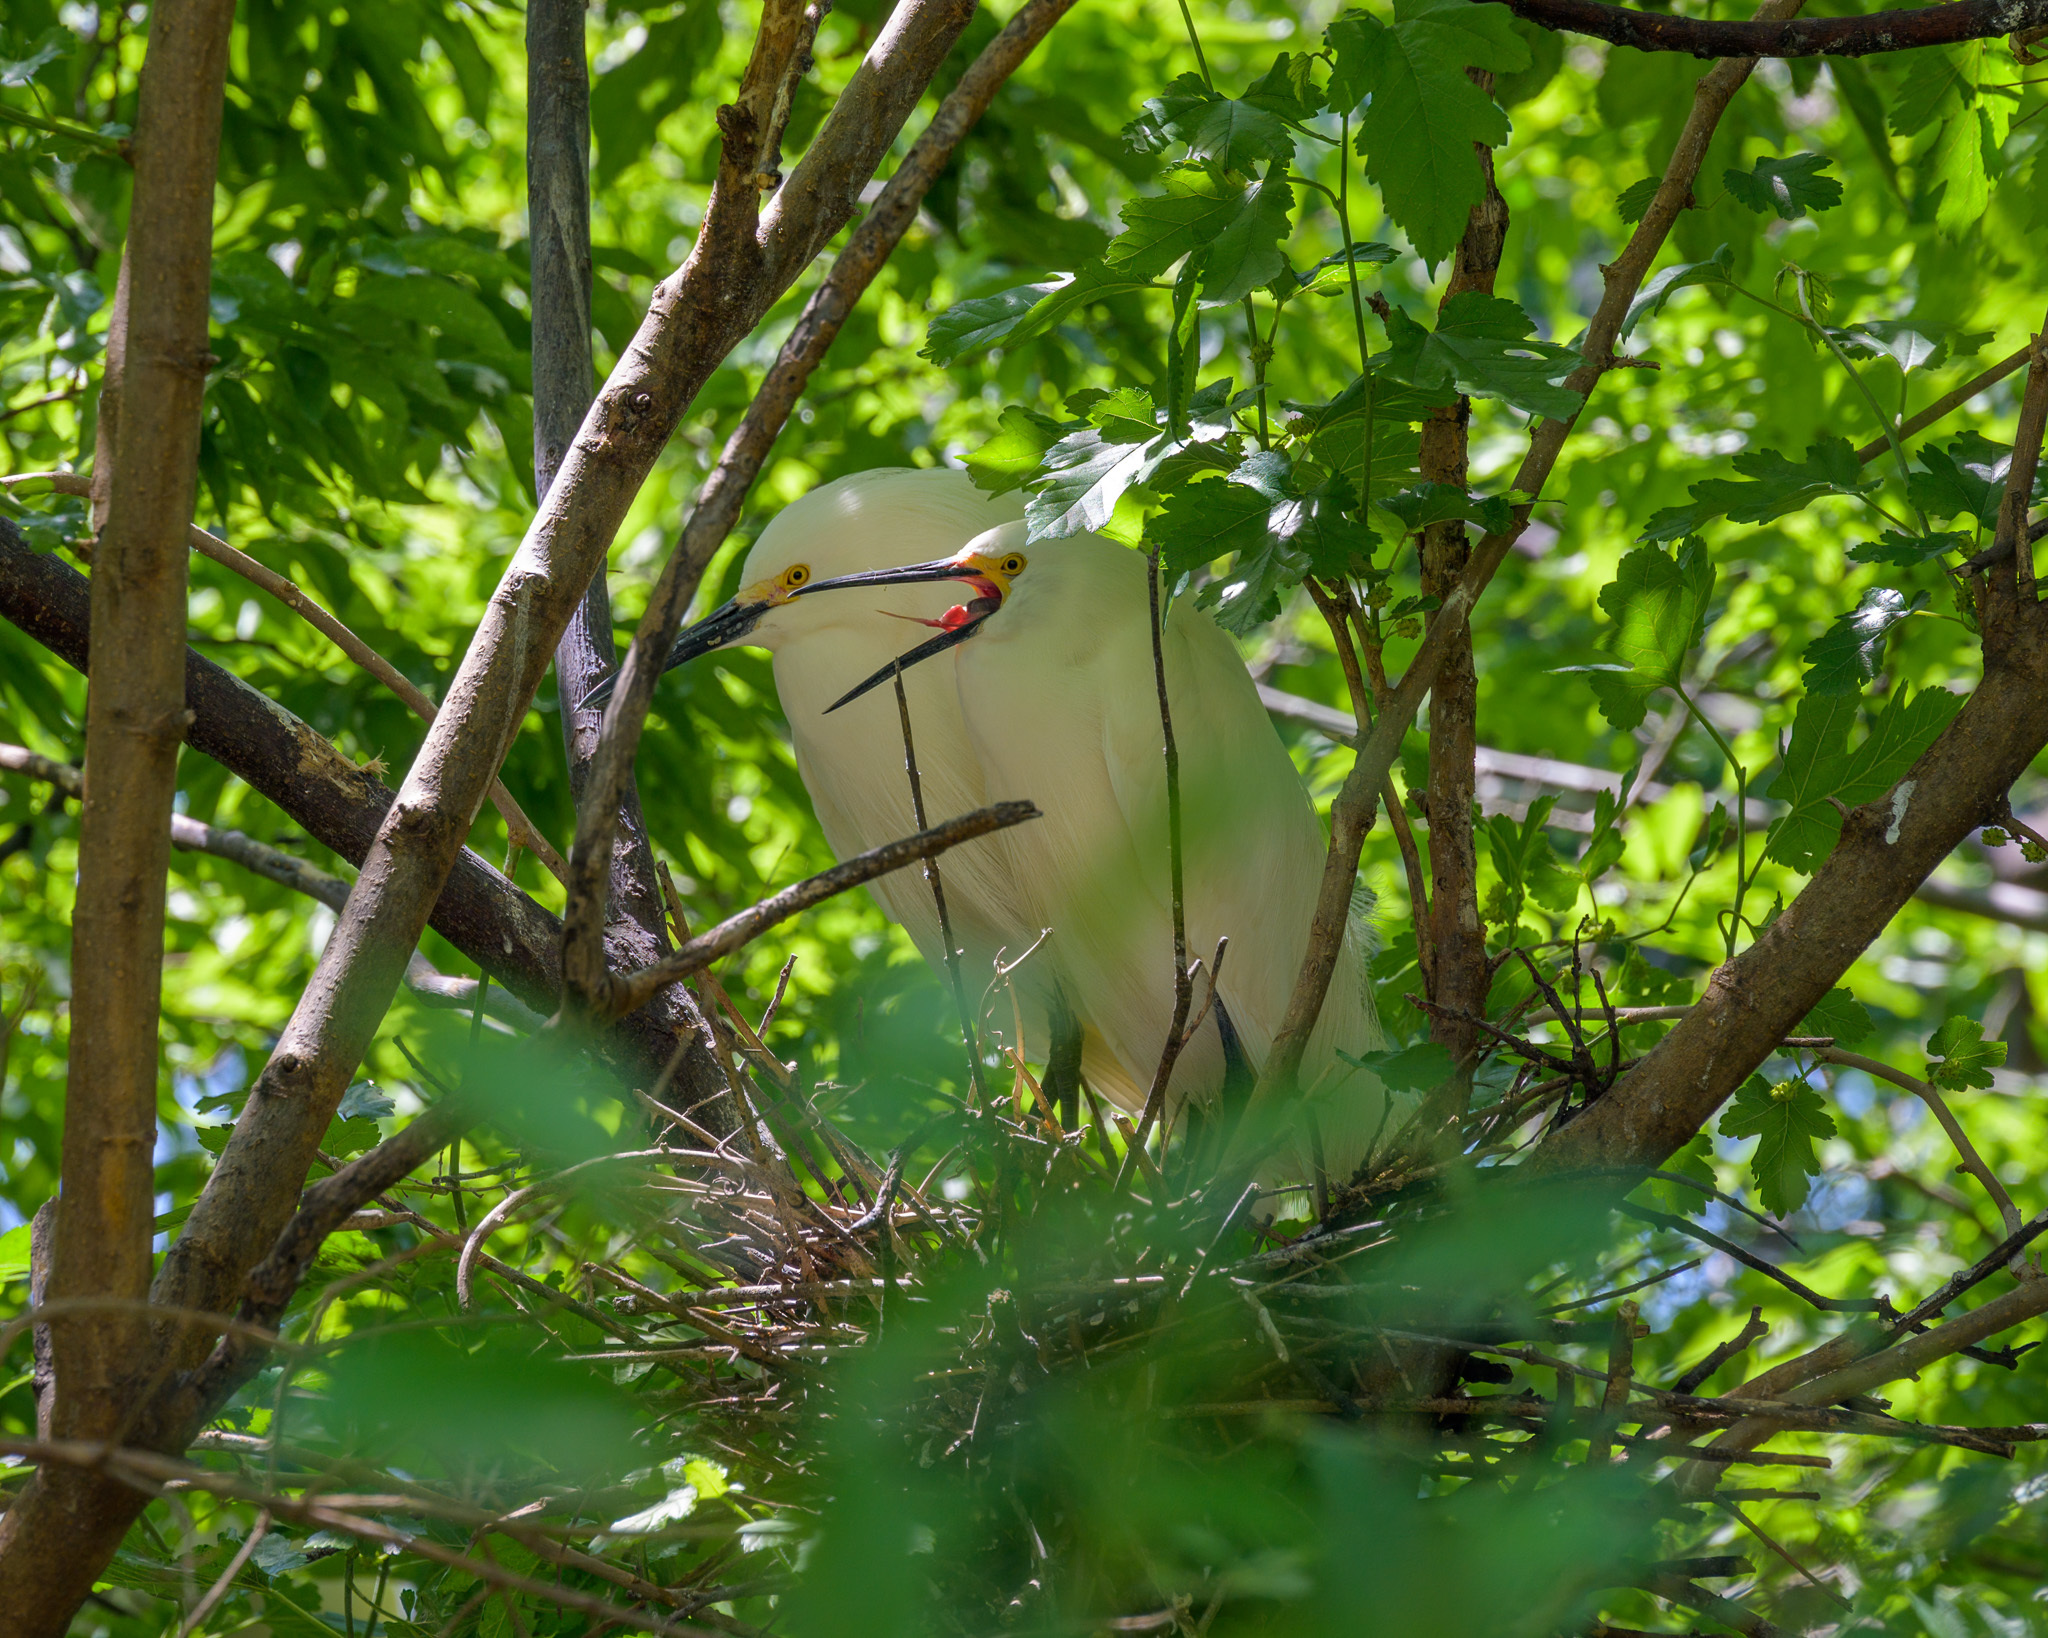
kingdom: Animalia
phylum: Chordata
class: Aves
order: Pelecaniformes
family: Ardeidae
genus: Egretta
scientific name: Egretta thula
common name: Snowy egret
